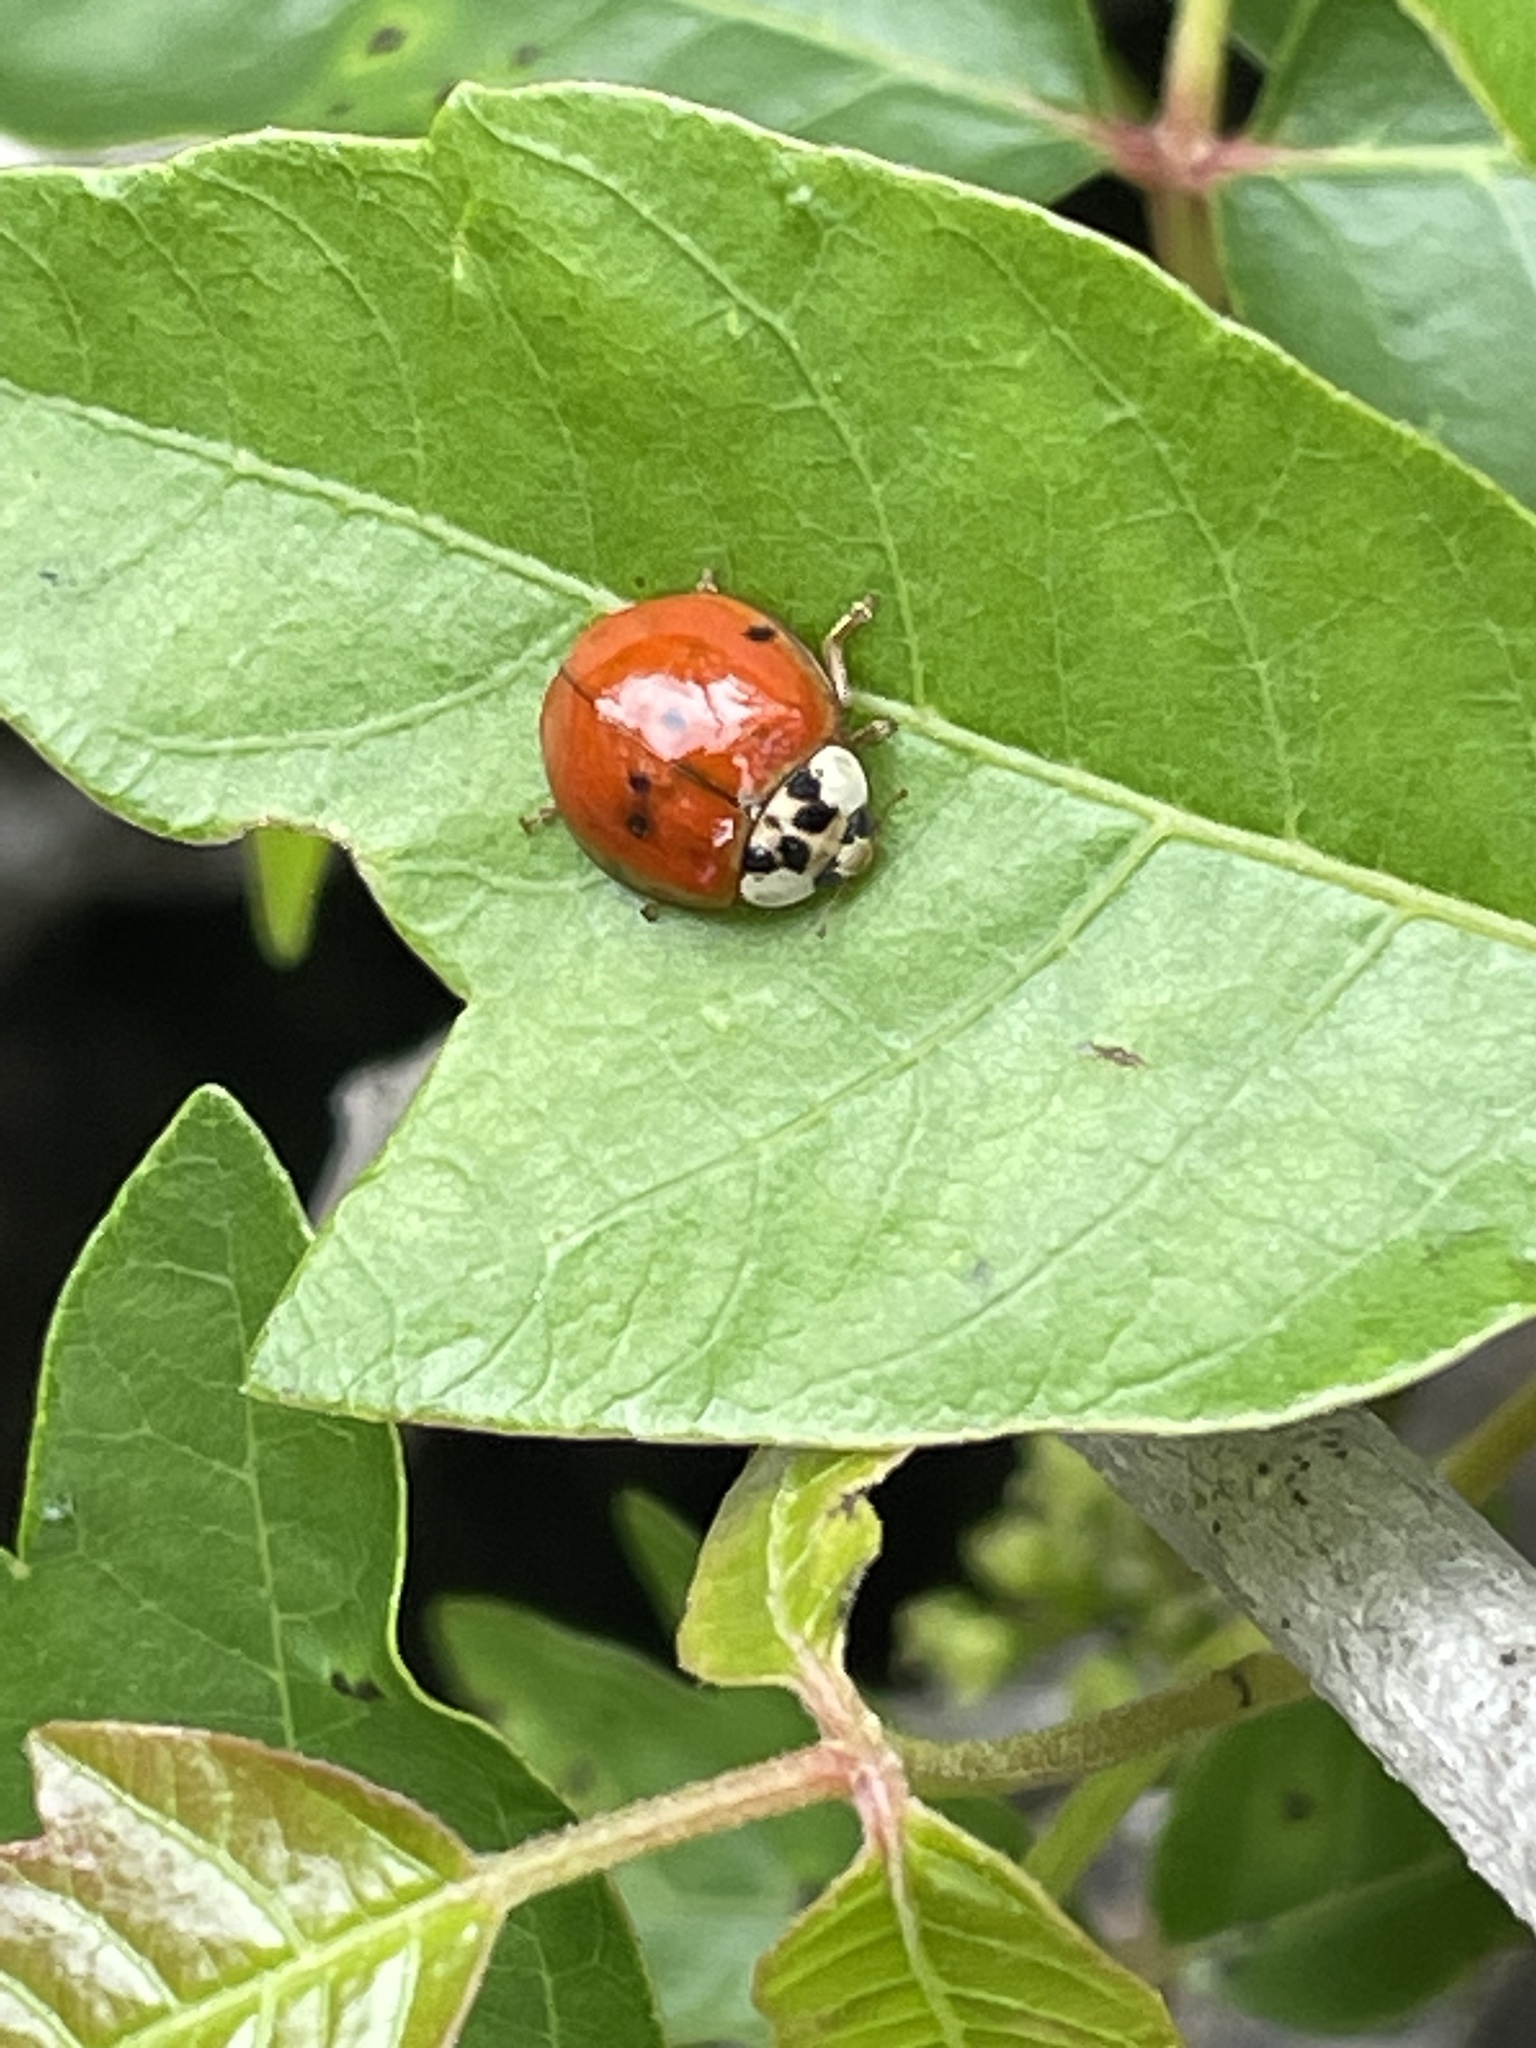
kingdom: Animalia
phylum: Arthropoda
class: Insecta
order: Coleoptera
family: Coccinellidae
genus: Harmonia
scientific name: Harmonia axyridis
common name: Harlequin ladybird
